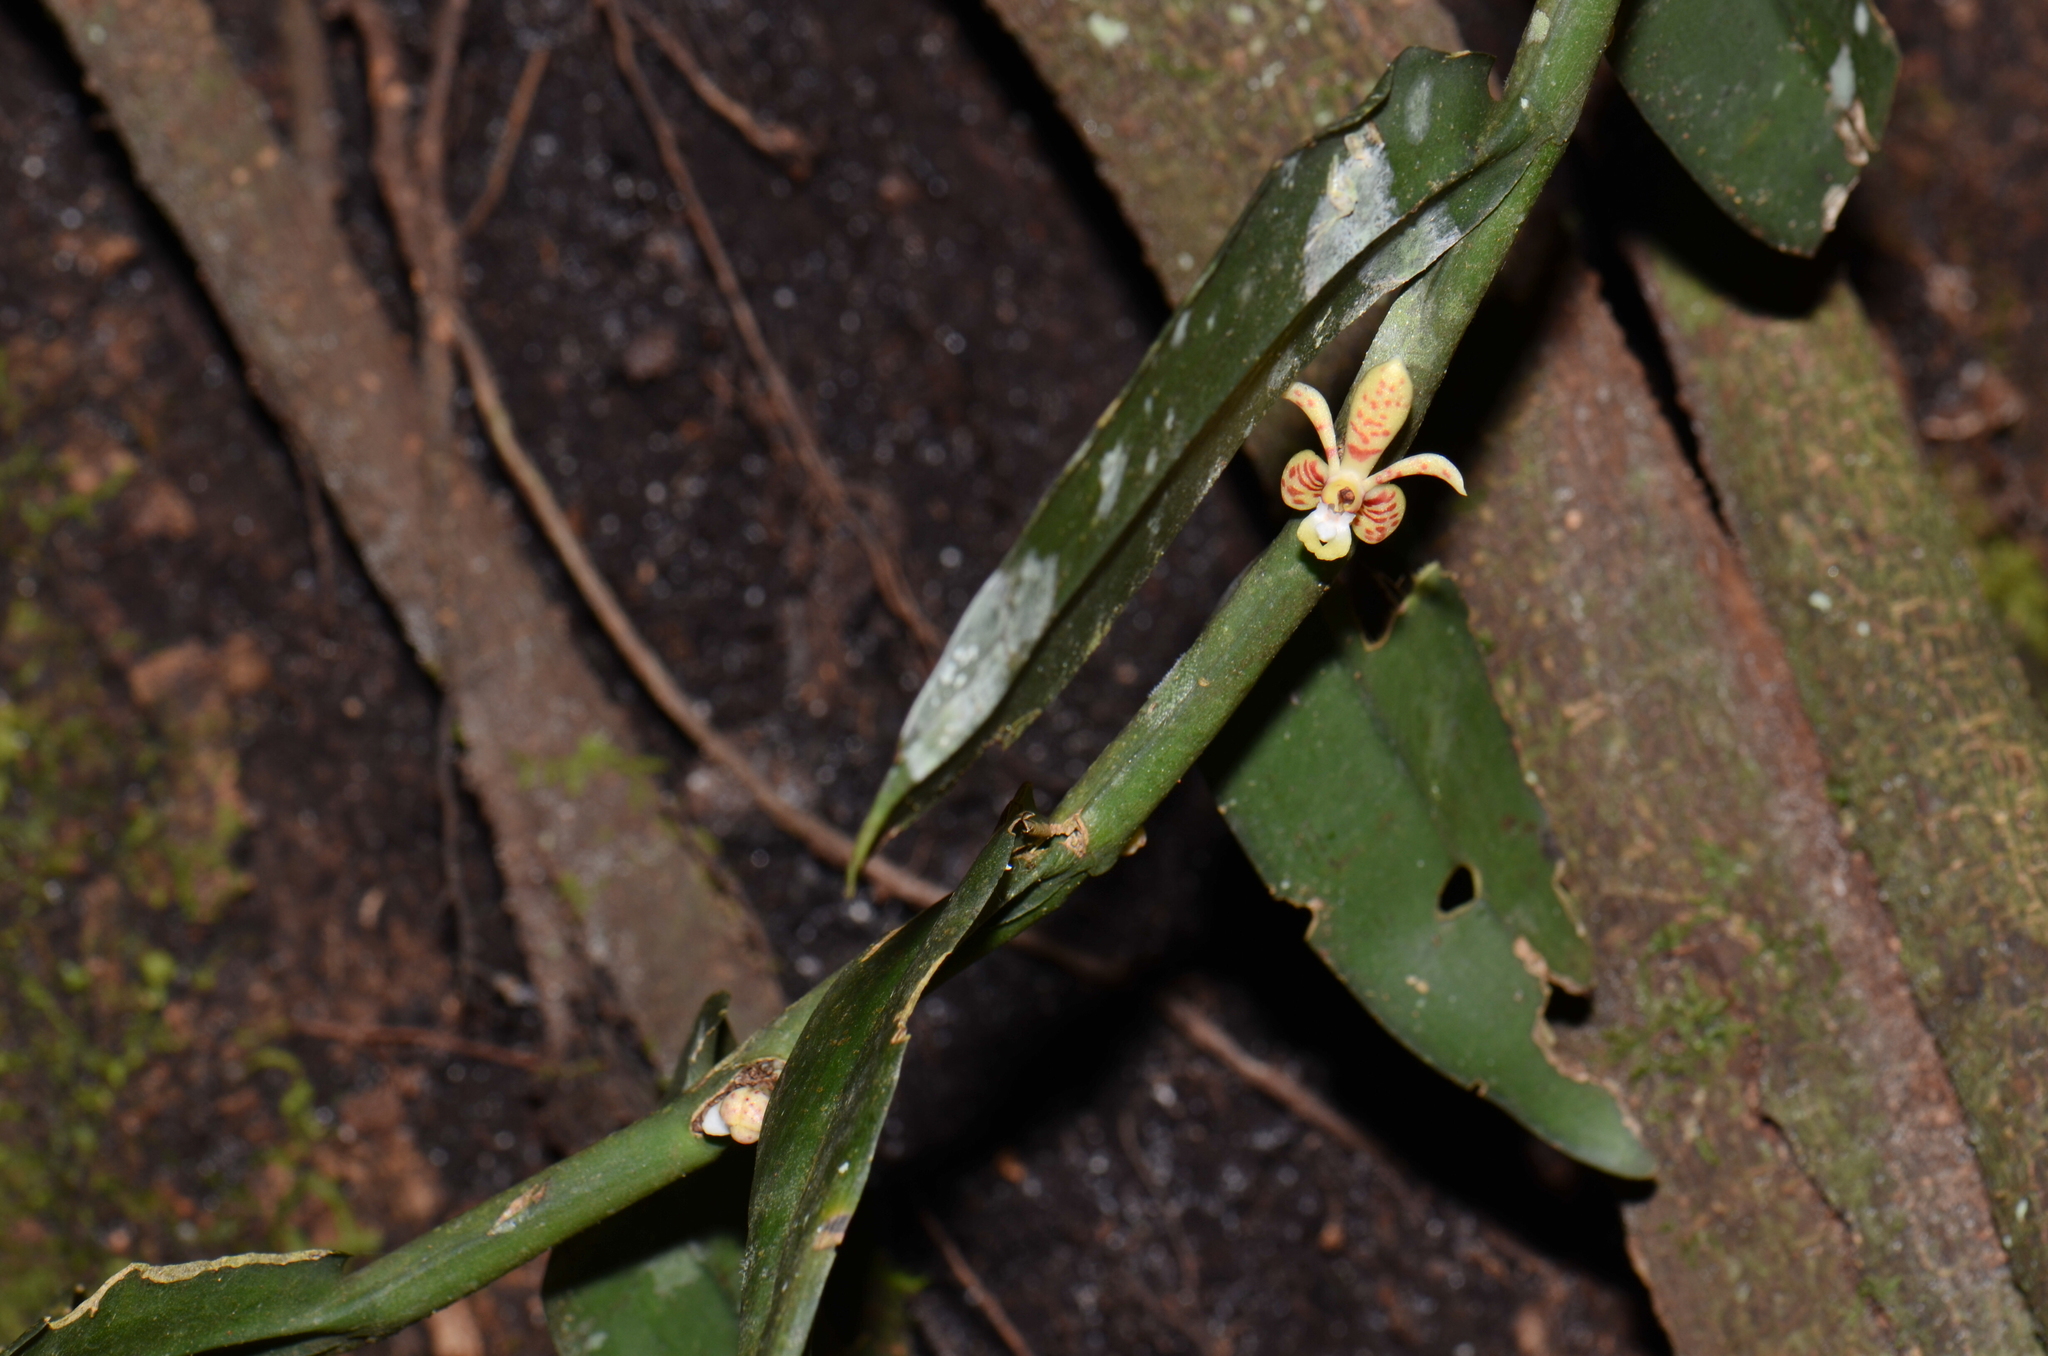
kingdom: Plantae
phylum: Tracheophyta
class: Liliopsida
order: Asparagales
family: Orchidaceae
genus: Trichoglottis
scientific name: Trichoglottis celebica
